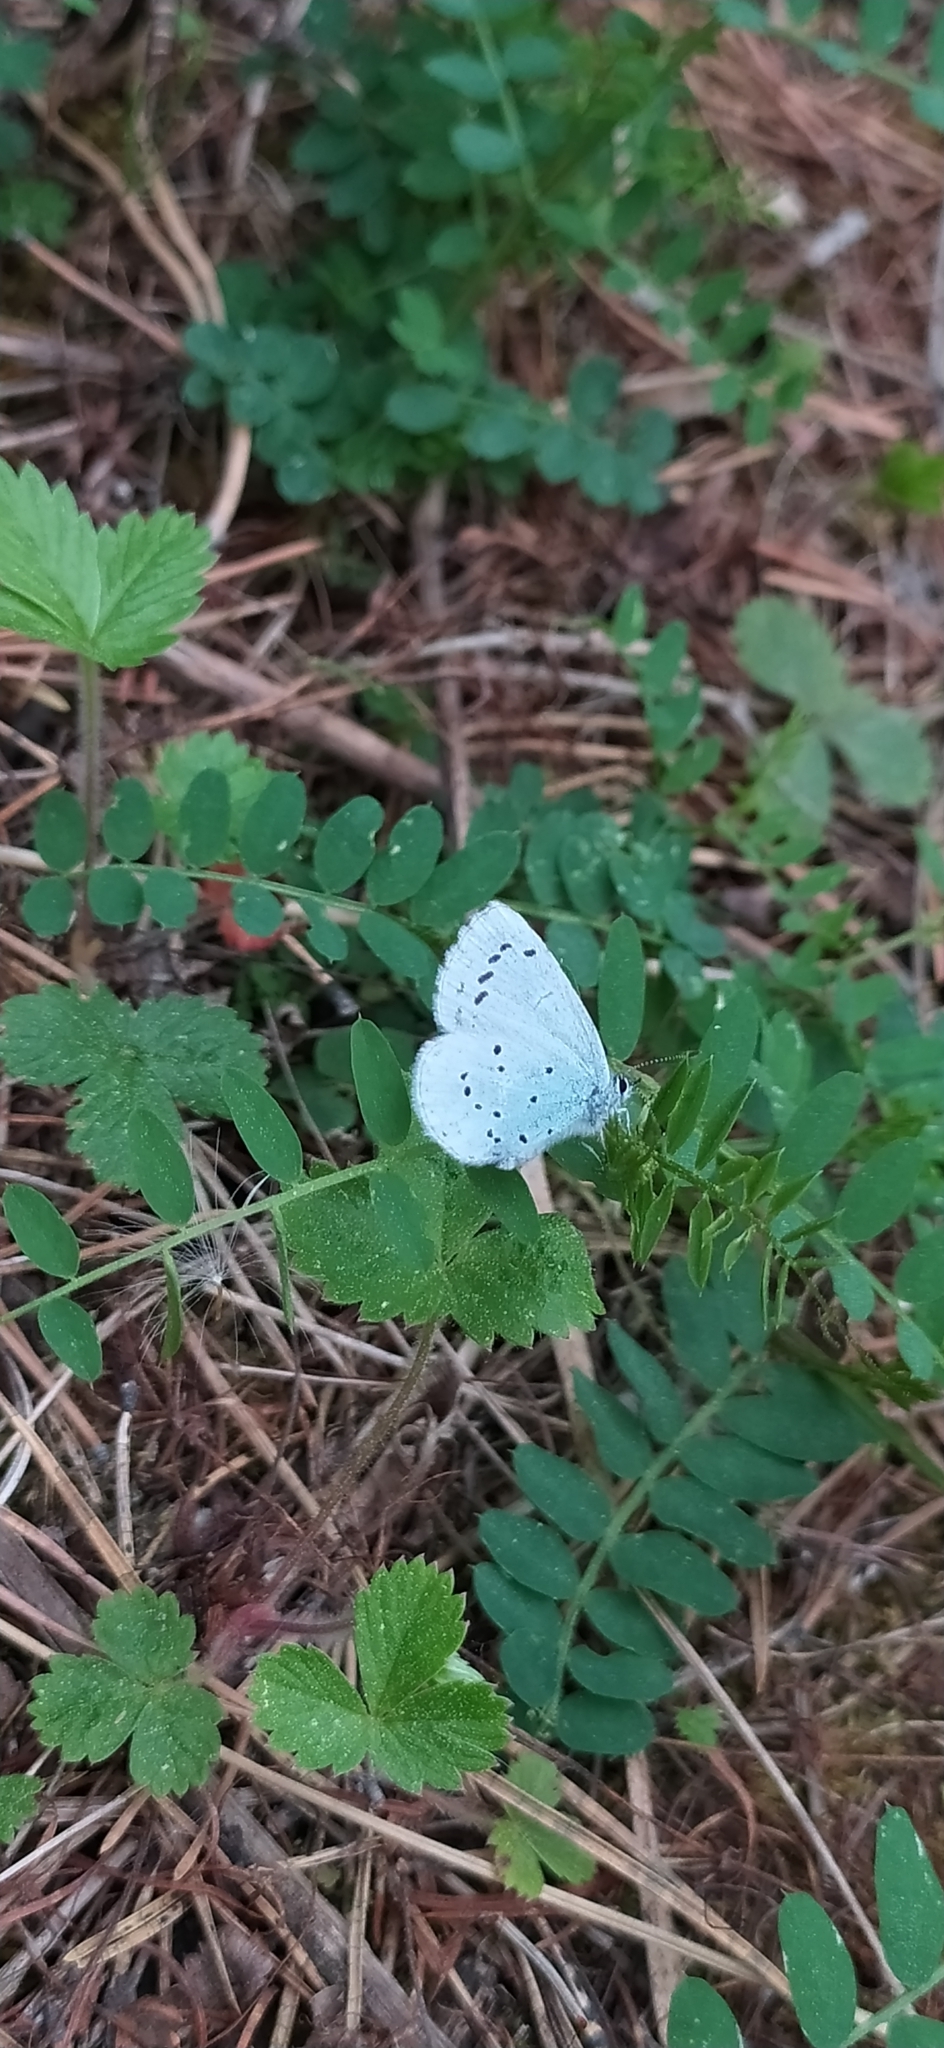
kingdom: Animalia
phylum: Arthropoda
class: Insecta
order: Lepidoptera
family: Lycaenidae
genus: Celastrina
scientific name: Celastrina argiolus
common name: Holly blue
